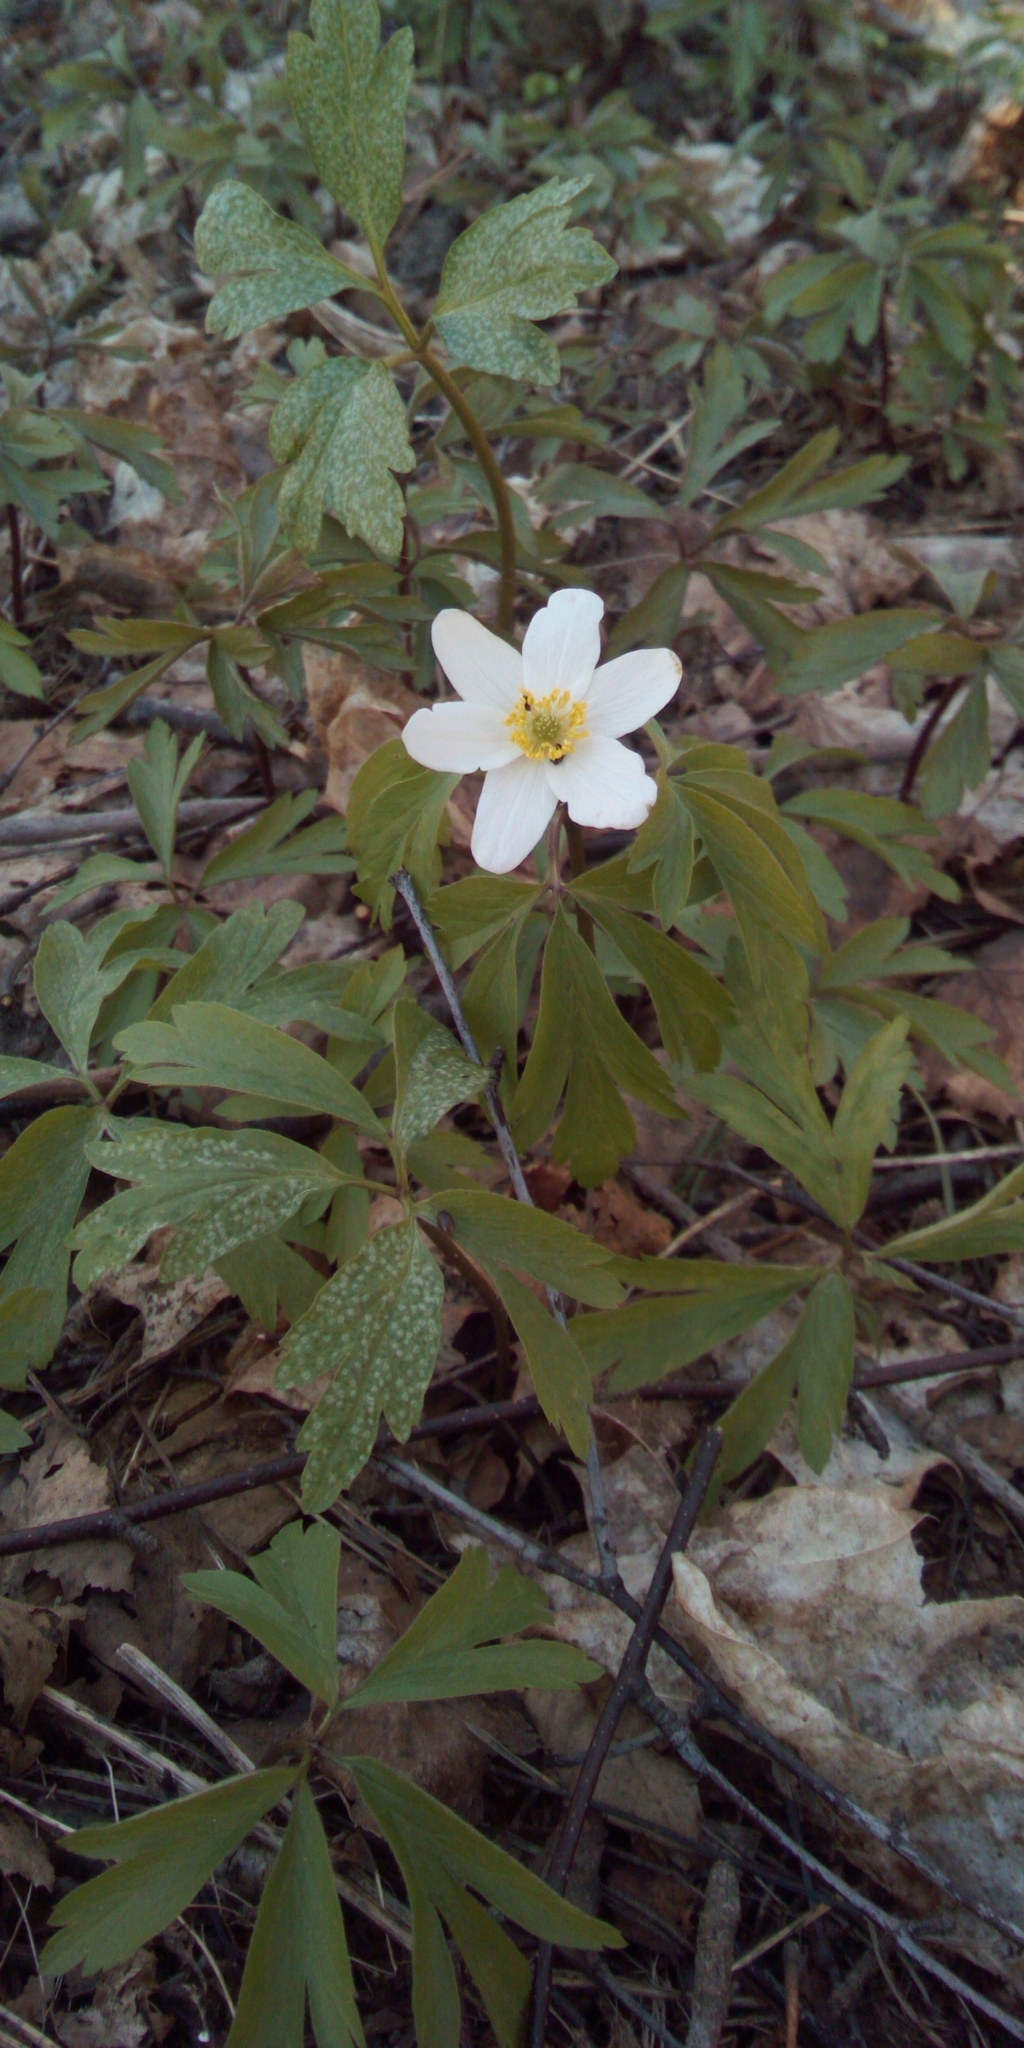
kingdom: Plantae
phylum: Tracheophyta
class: Magnoliopsida
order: Ranunculales
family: Ranunculaceae
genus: Anemone
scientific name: Anemone nemorosa
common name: Wood anemone
